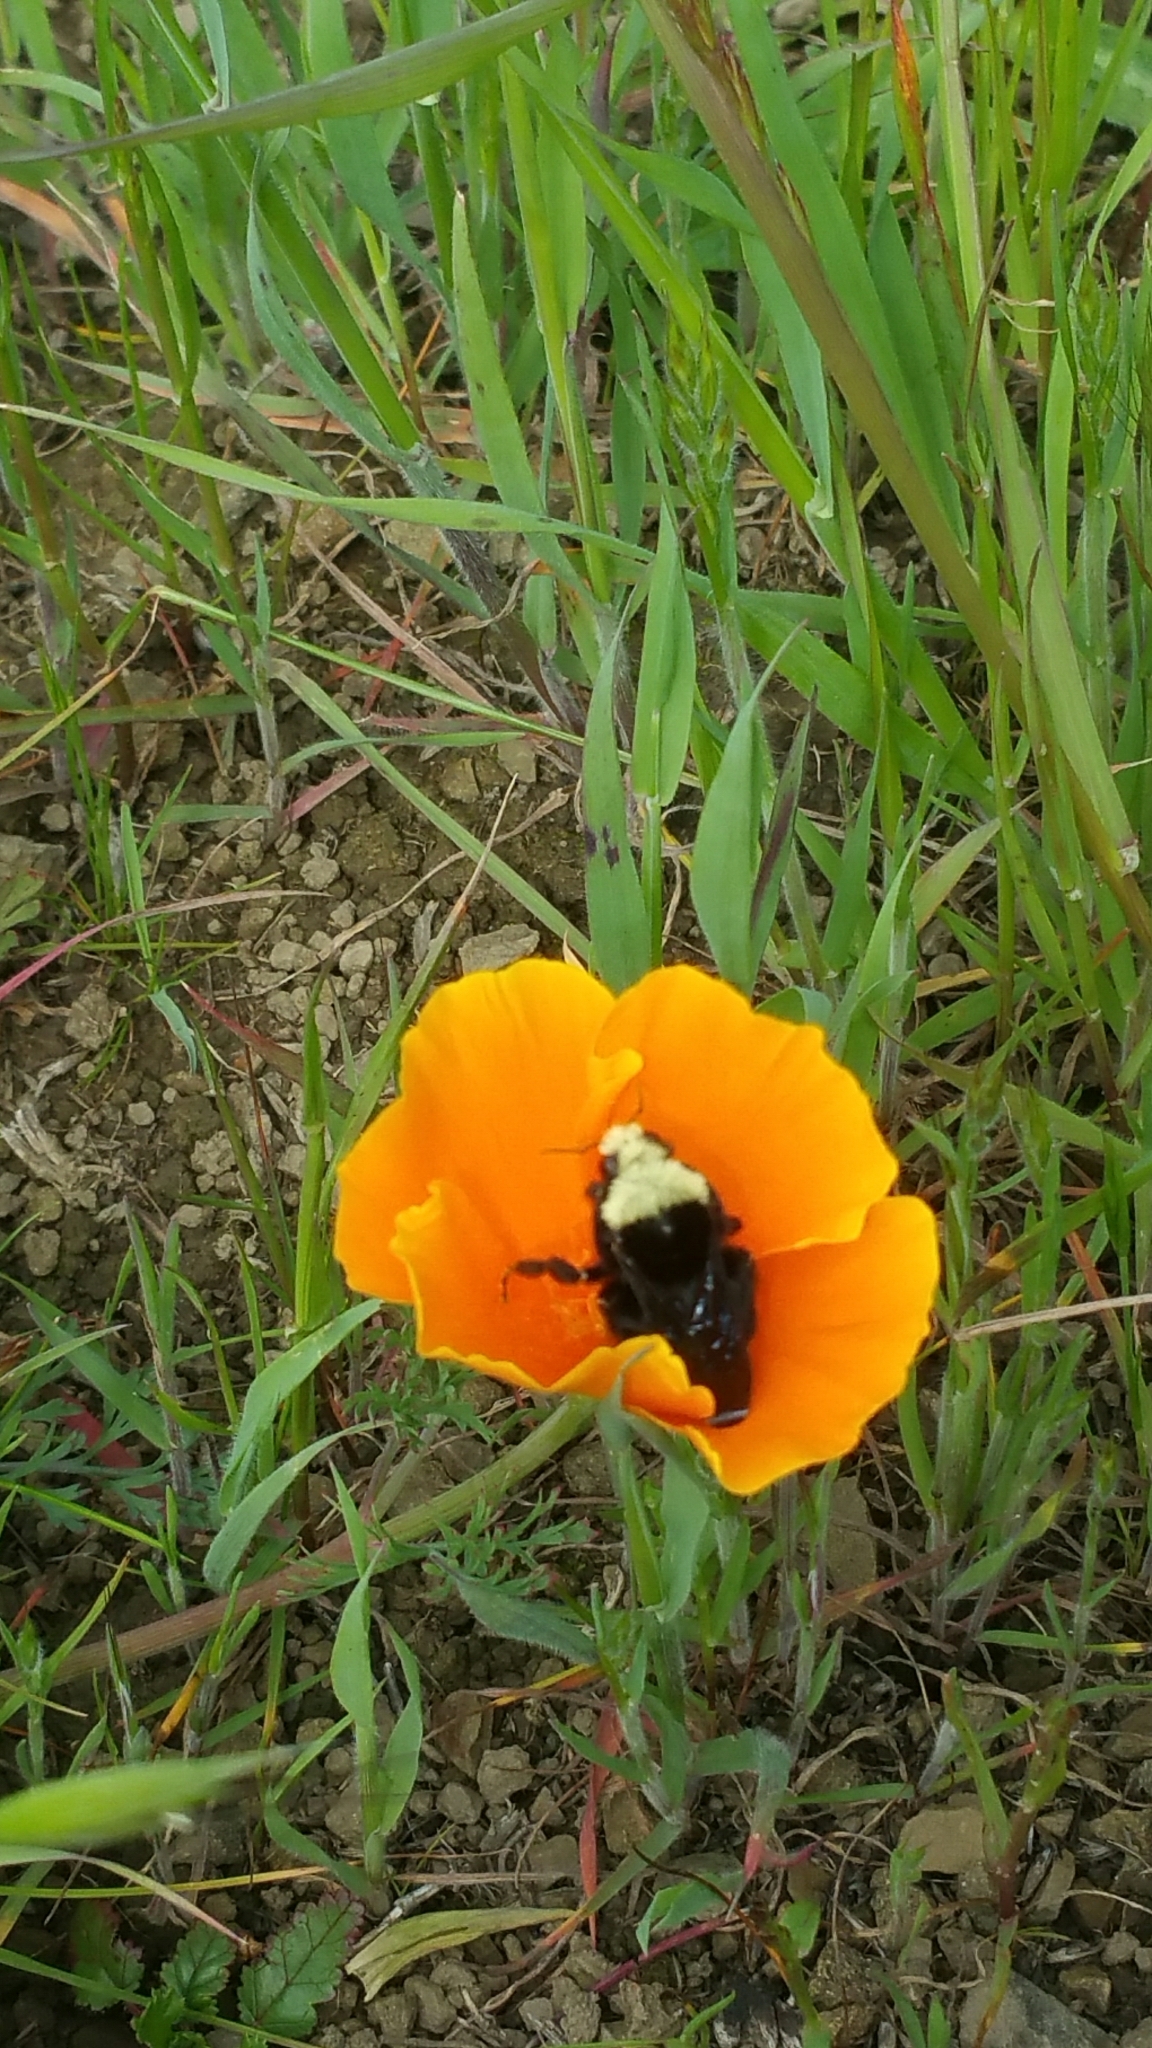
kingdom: Animalia
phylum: Arthropoda
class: Insecta
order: Hymenoptera
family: Apidae
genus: Pyrobombus
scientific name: Pyrobombus
